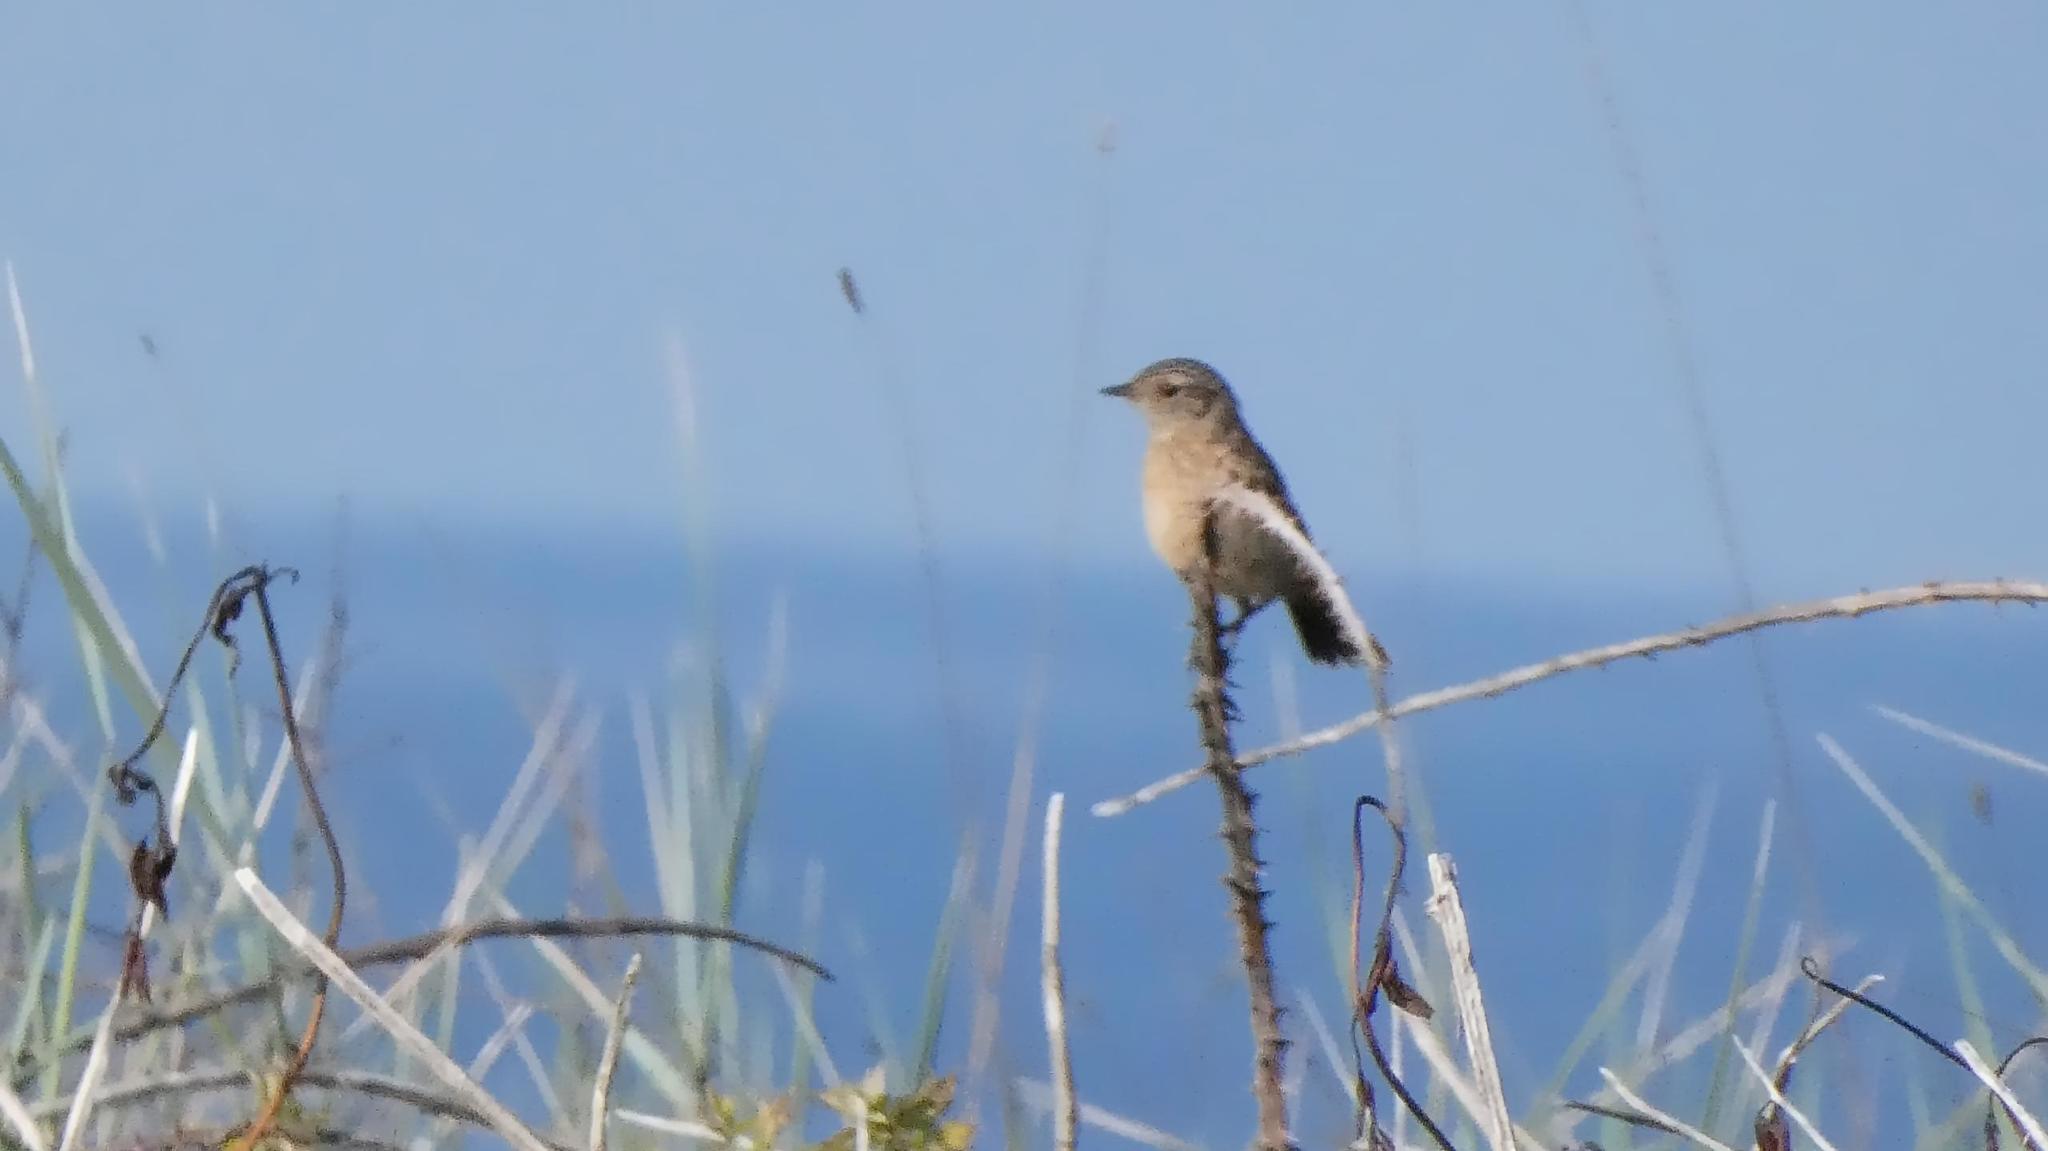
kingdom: Animalia
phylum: Chordata
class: Aves
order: Passeriformes
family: Muscicapidae
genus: Saxicola
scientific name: Saxicola rubicola
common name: European stonechat
